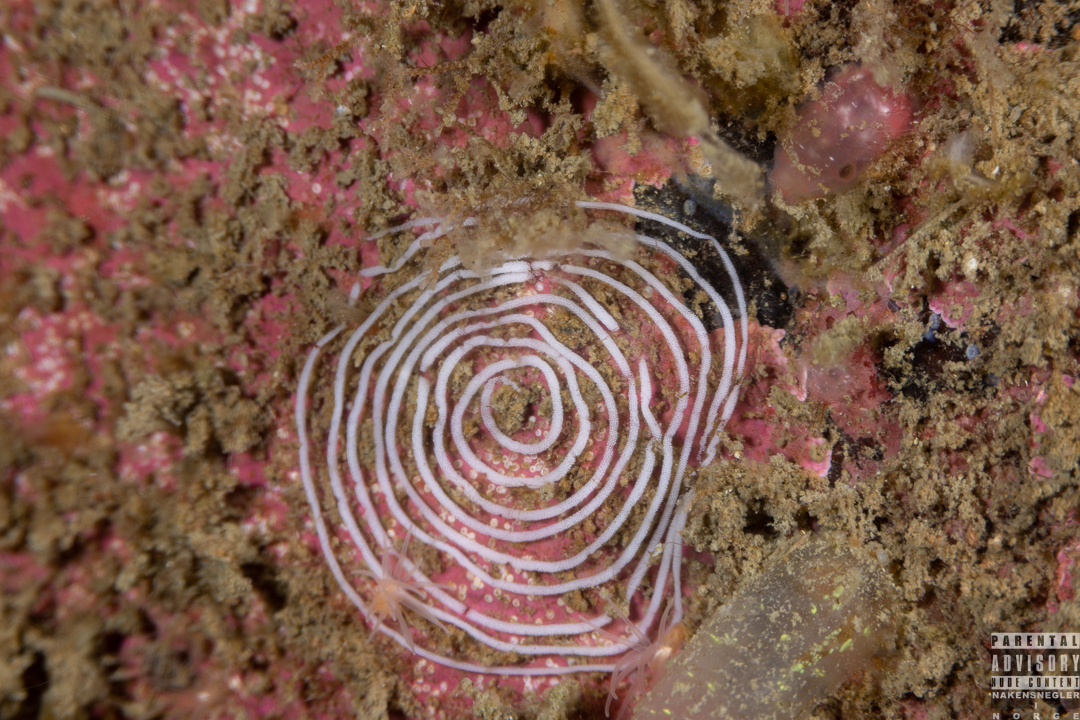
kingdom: Animalia
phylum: Mollusca
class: Gastropoda
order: Nudibranchia
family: Coryphellidae
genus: Coryphella
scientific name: Coryphella verrucosa
